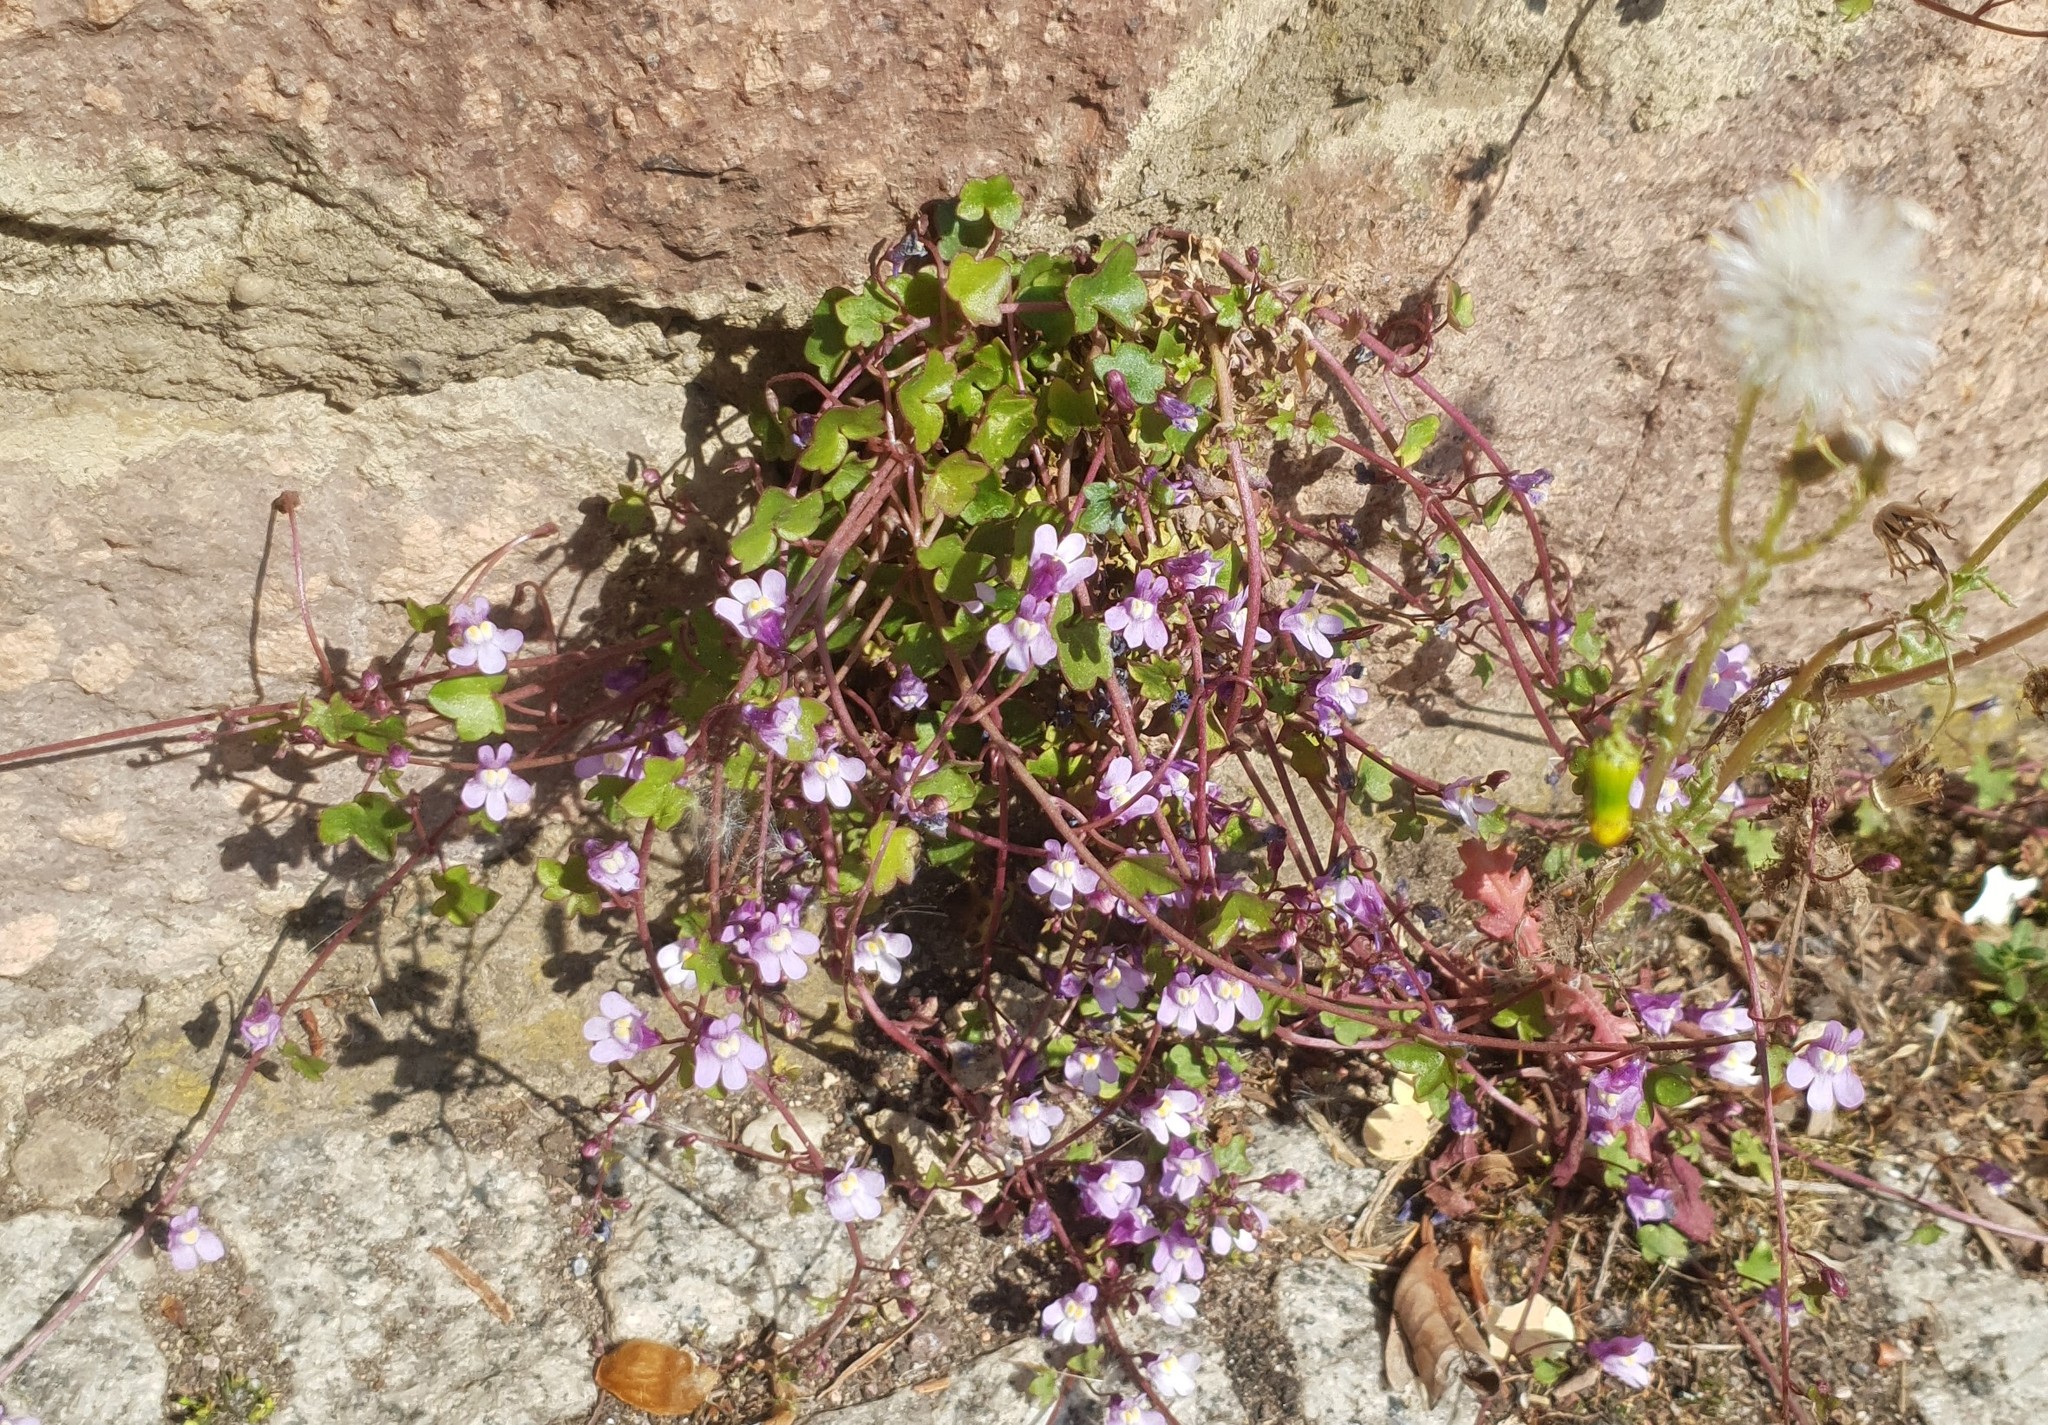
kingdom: Plantae
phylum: Tracheophyta
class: Magnoliopsida
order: Lamiales
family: Plantaginaceae
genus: Cymbalaria
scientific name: Cymbalaria muralis
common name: Ivy-leaved toadflax
